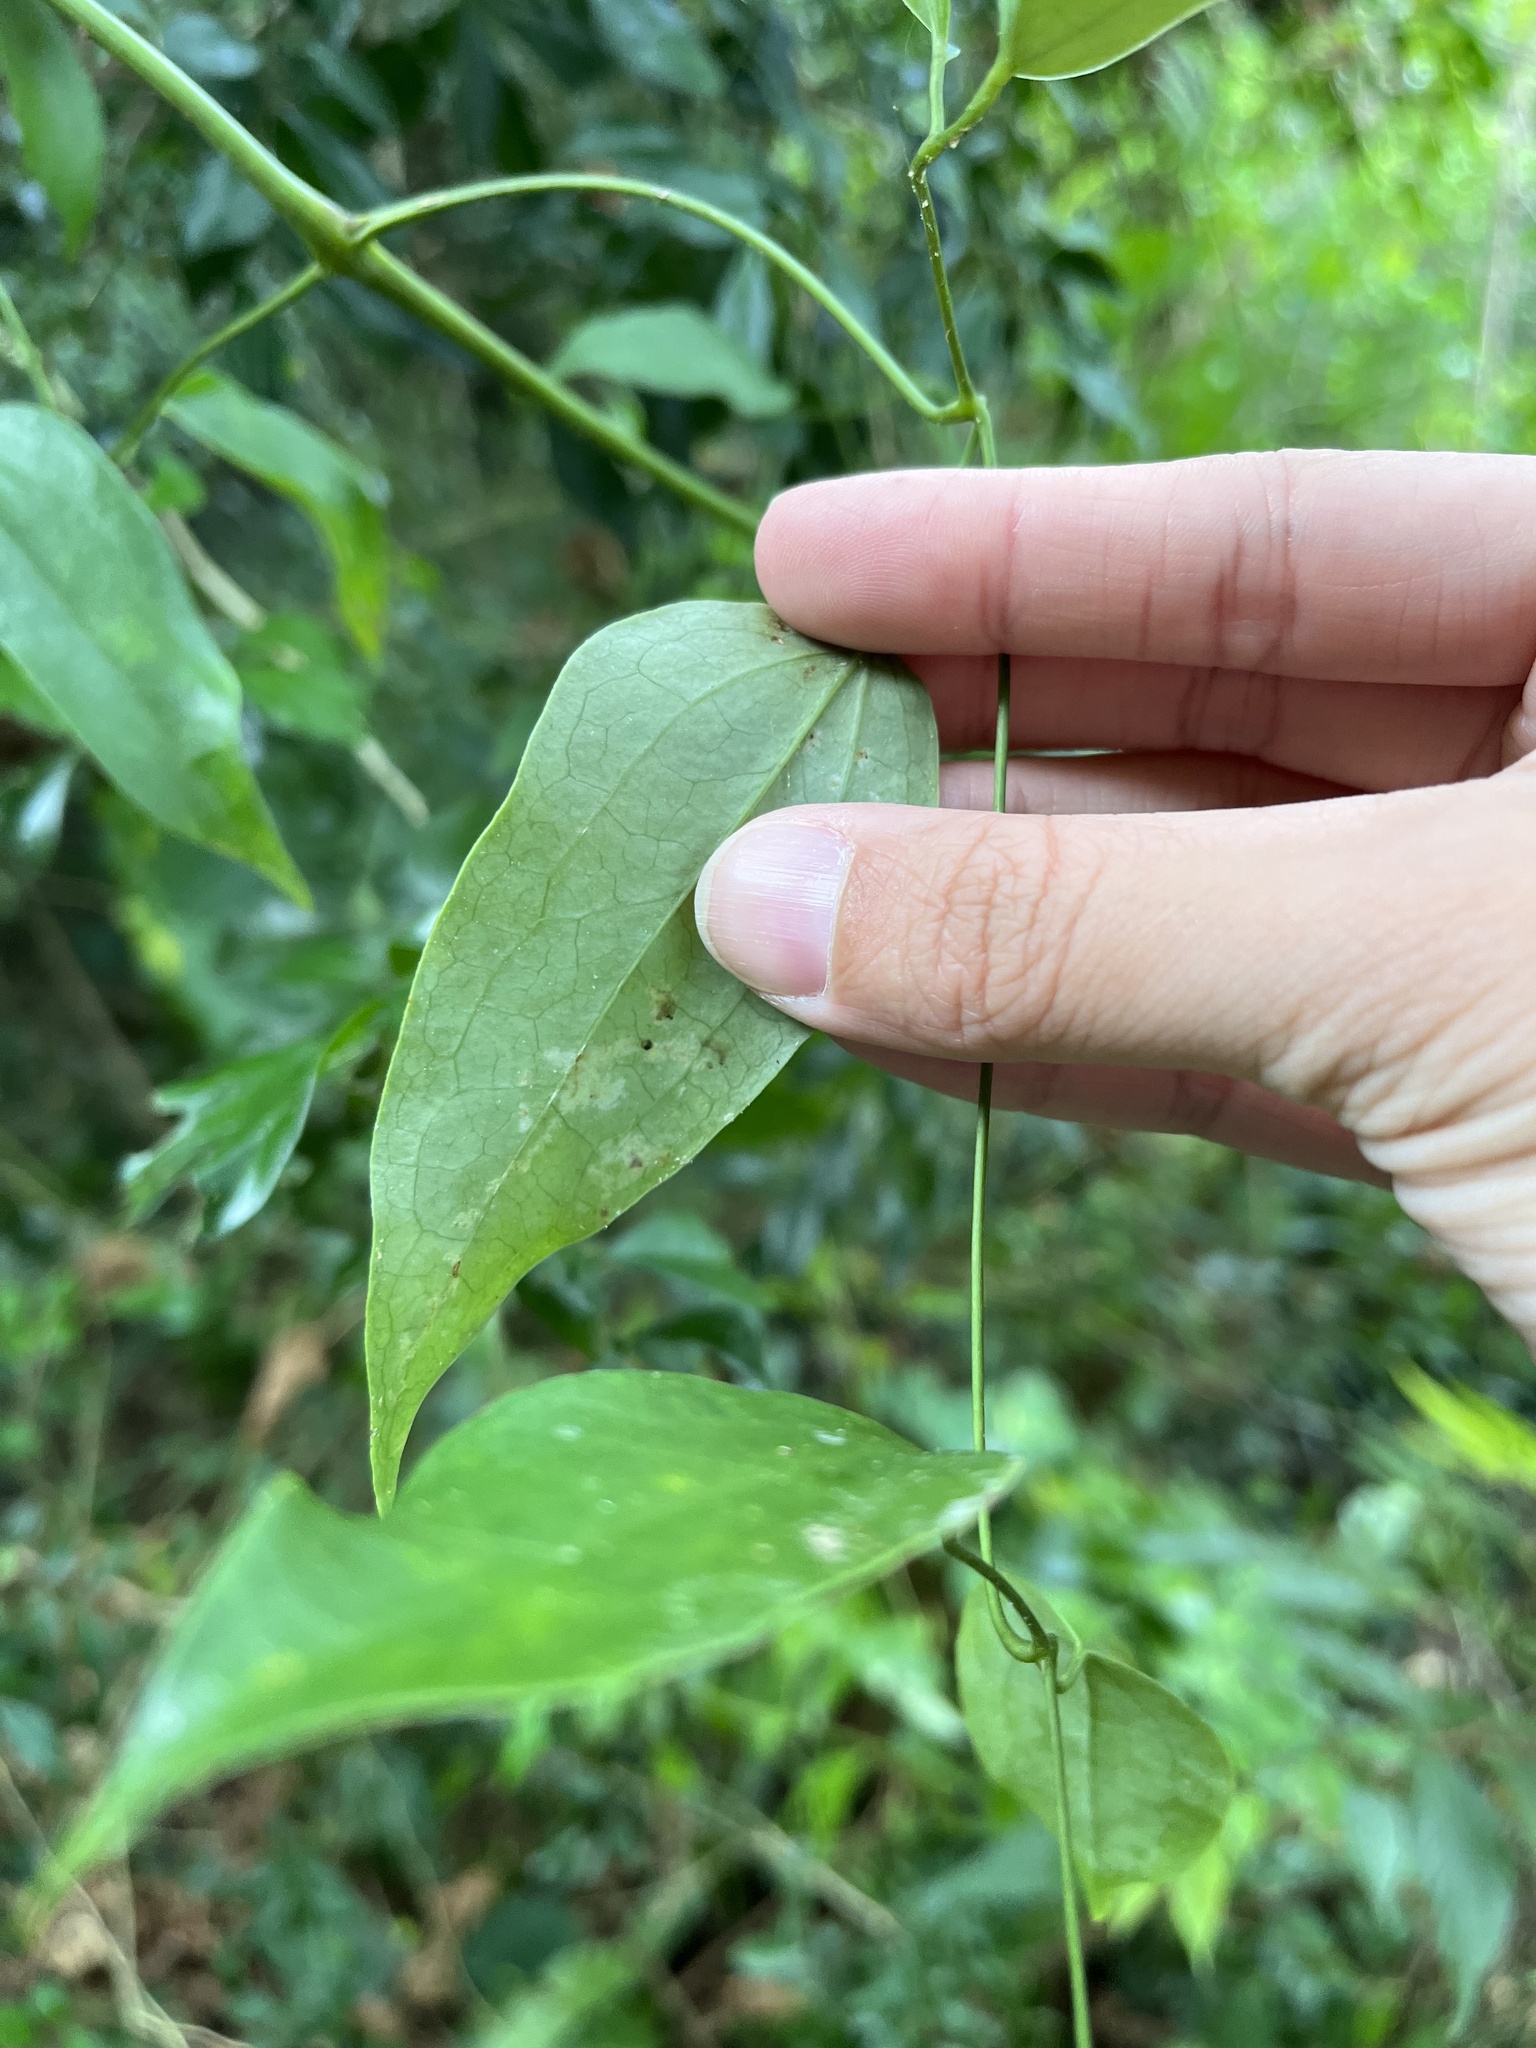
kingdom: Plantae
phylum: Tracheophyta
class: Magnoliopsida
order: Ranunculales
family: Ranunculaceae
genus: Clematis
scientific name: Clematis uncinata
